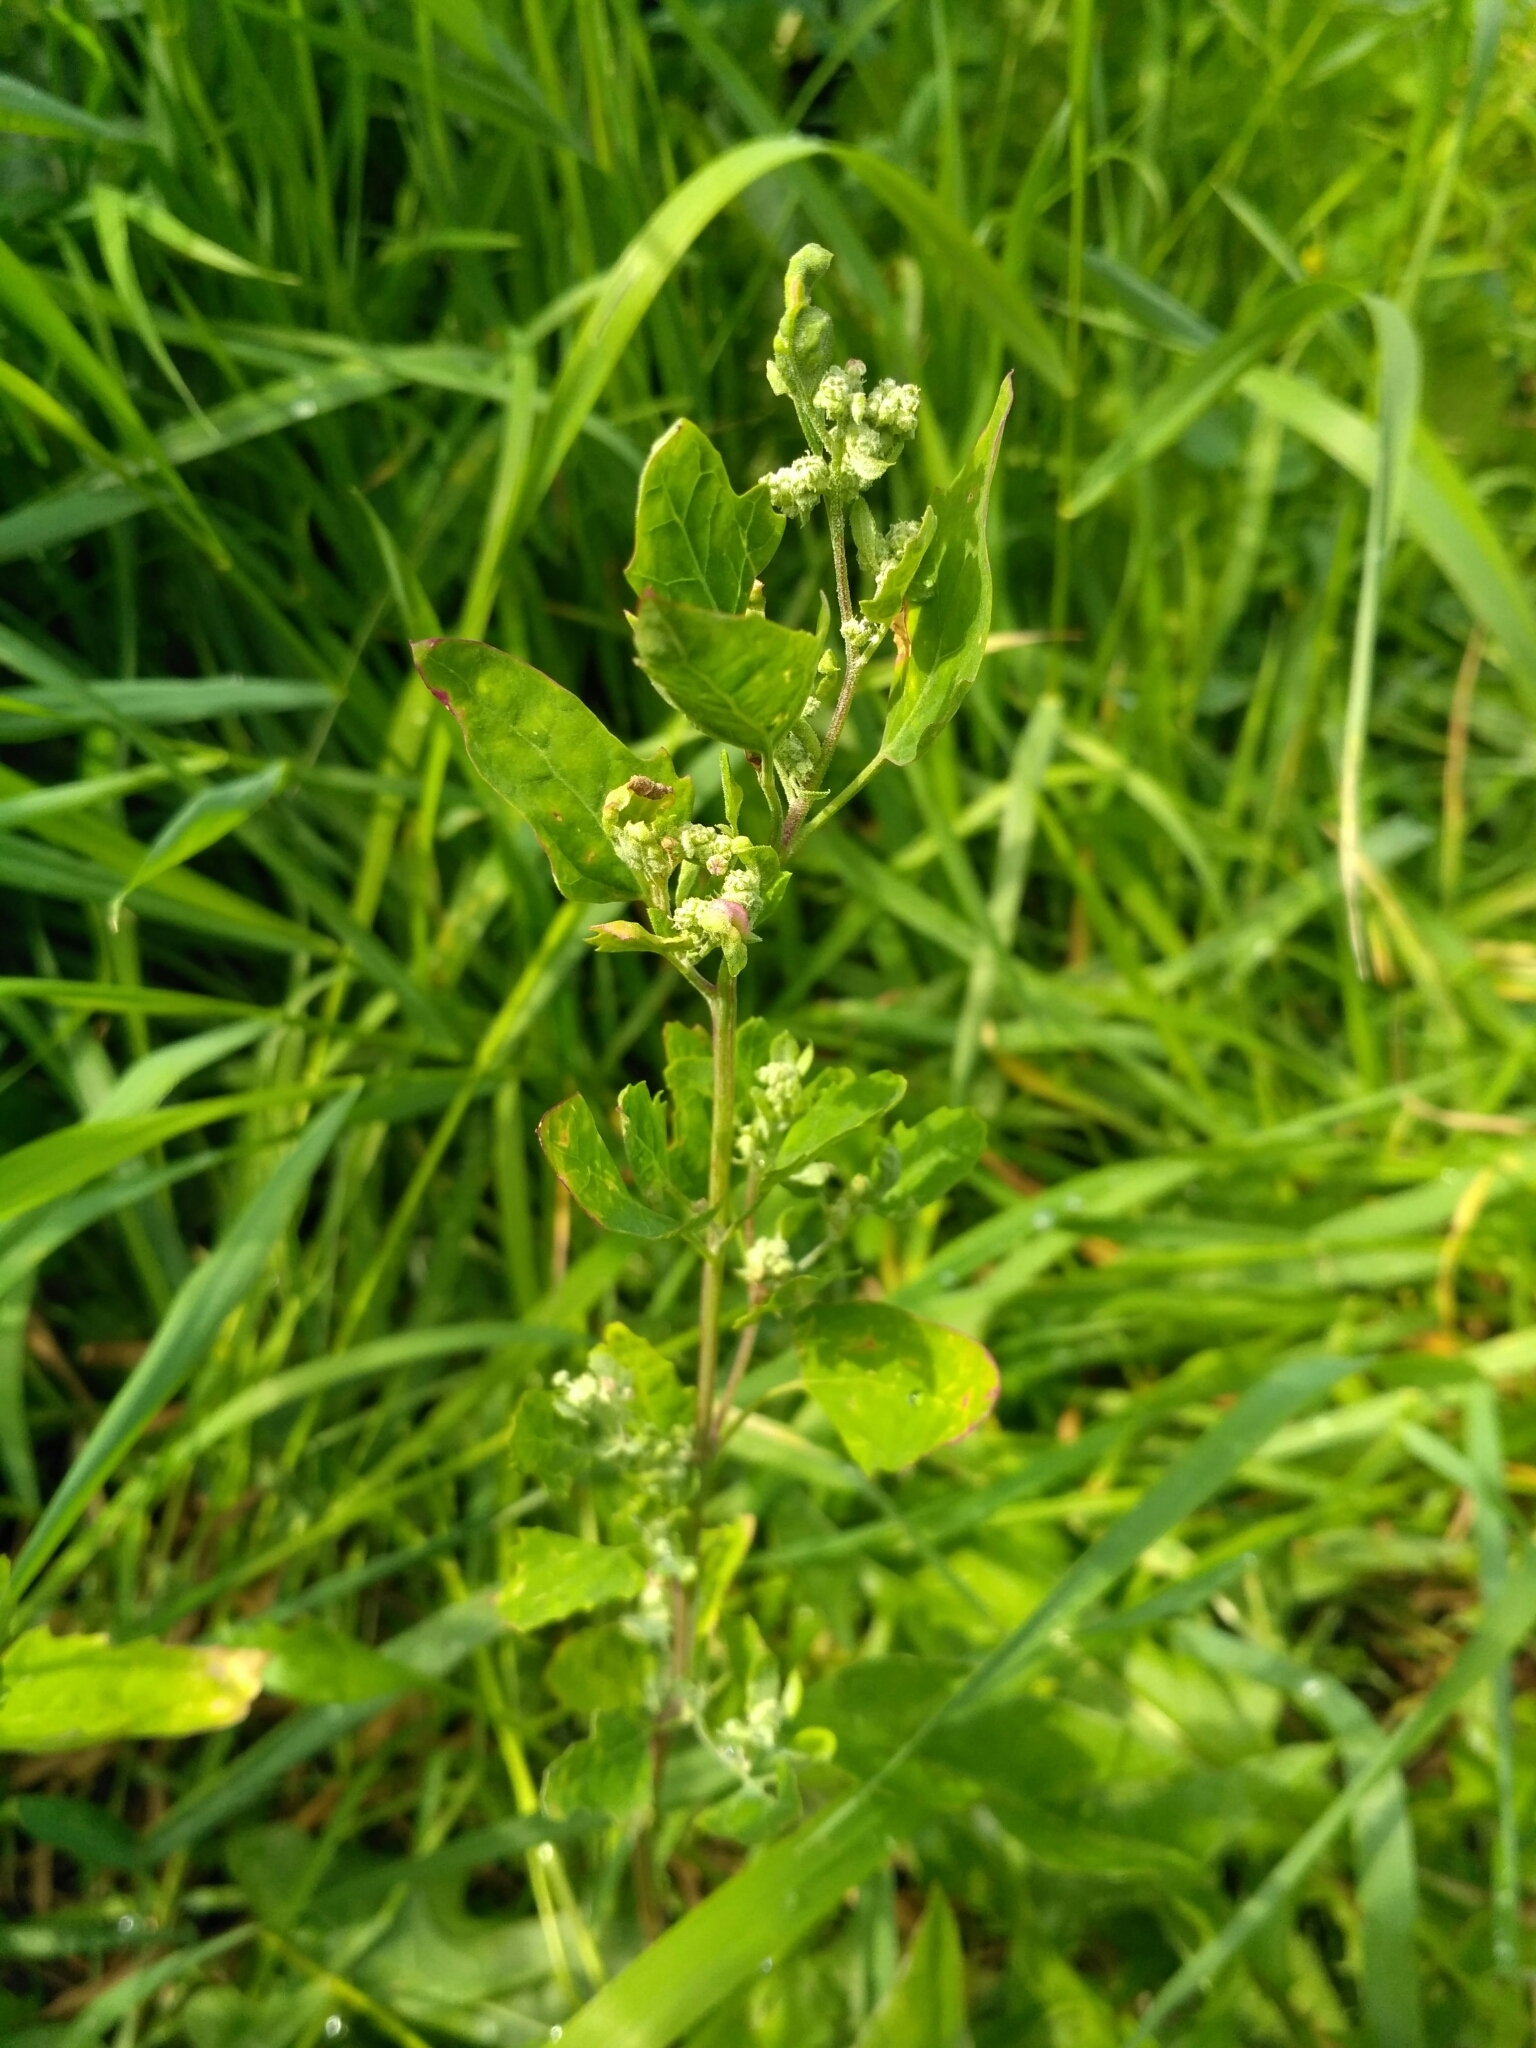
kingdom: Plantae
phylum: Tracheophyta
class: Magnoliopsida
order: Caryophyllales
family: Amaranthaceae
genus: Chenopodium
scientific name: Chenopodium album
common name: Fat-hen
